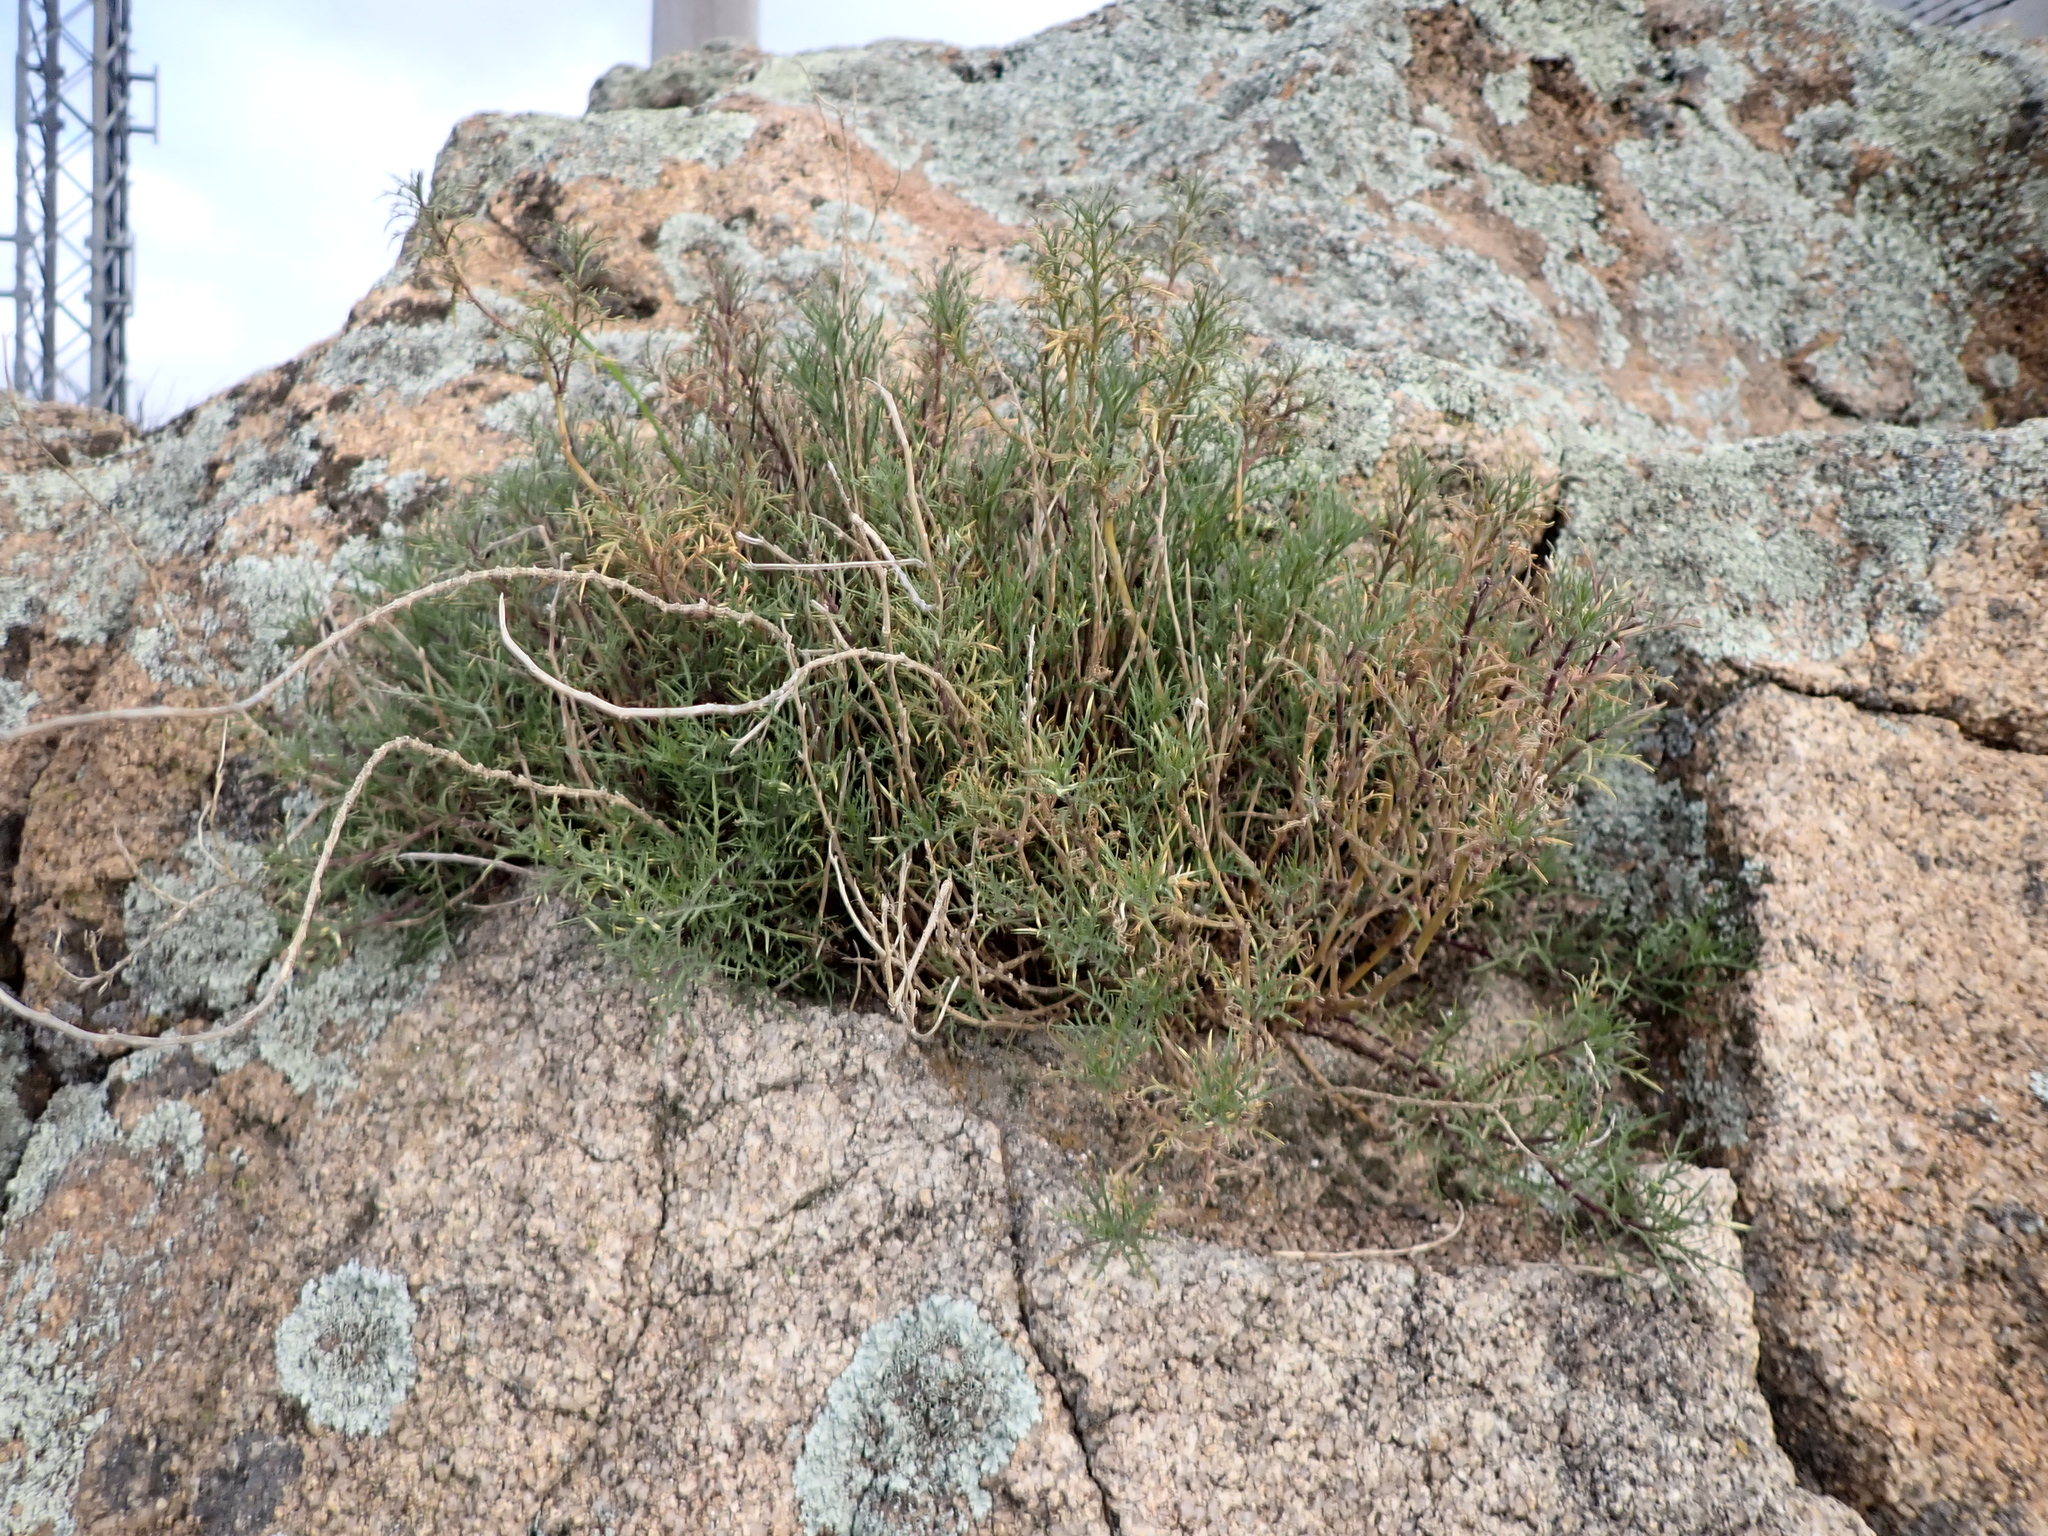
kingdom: Plantae
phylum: Tracheophyta
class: Magnoliopsida
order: Asterales
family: Campanulaceae
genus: Lithotoma
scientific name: Lithotoma axillaris
